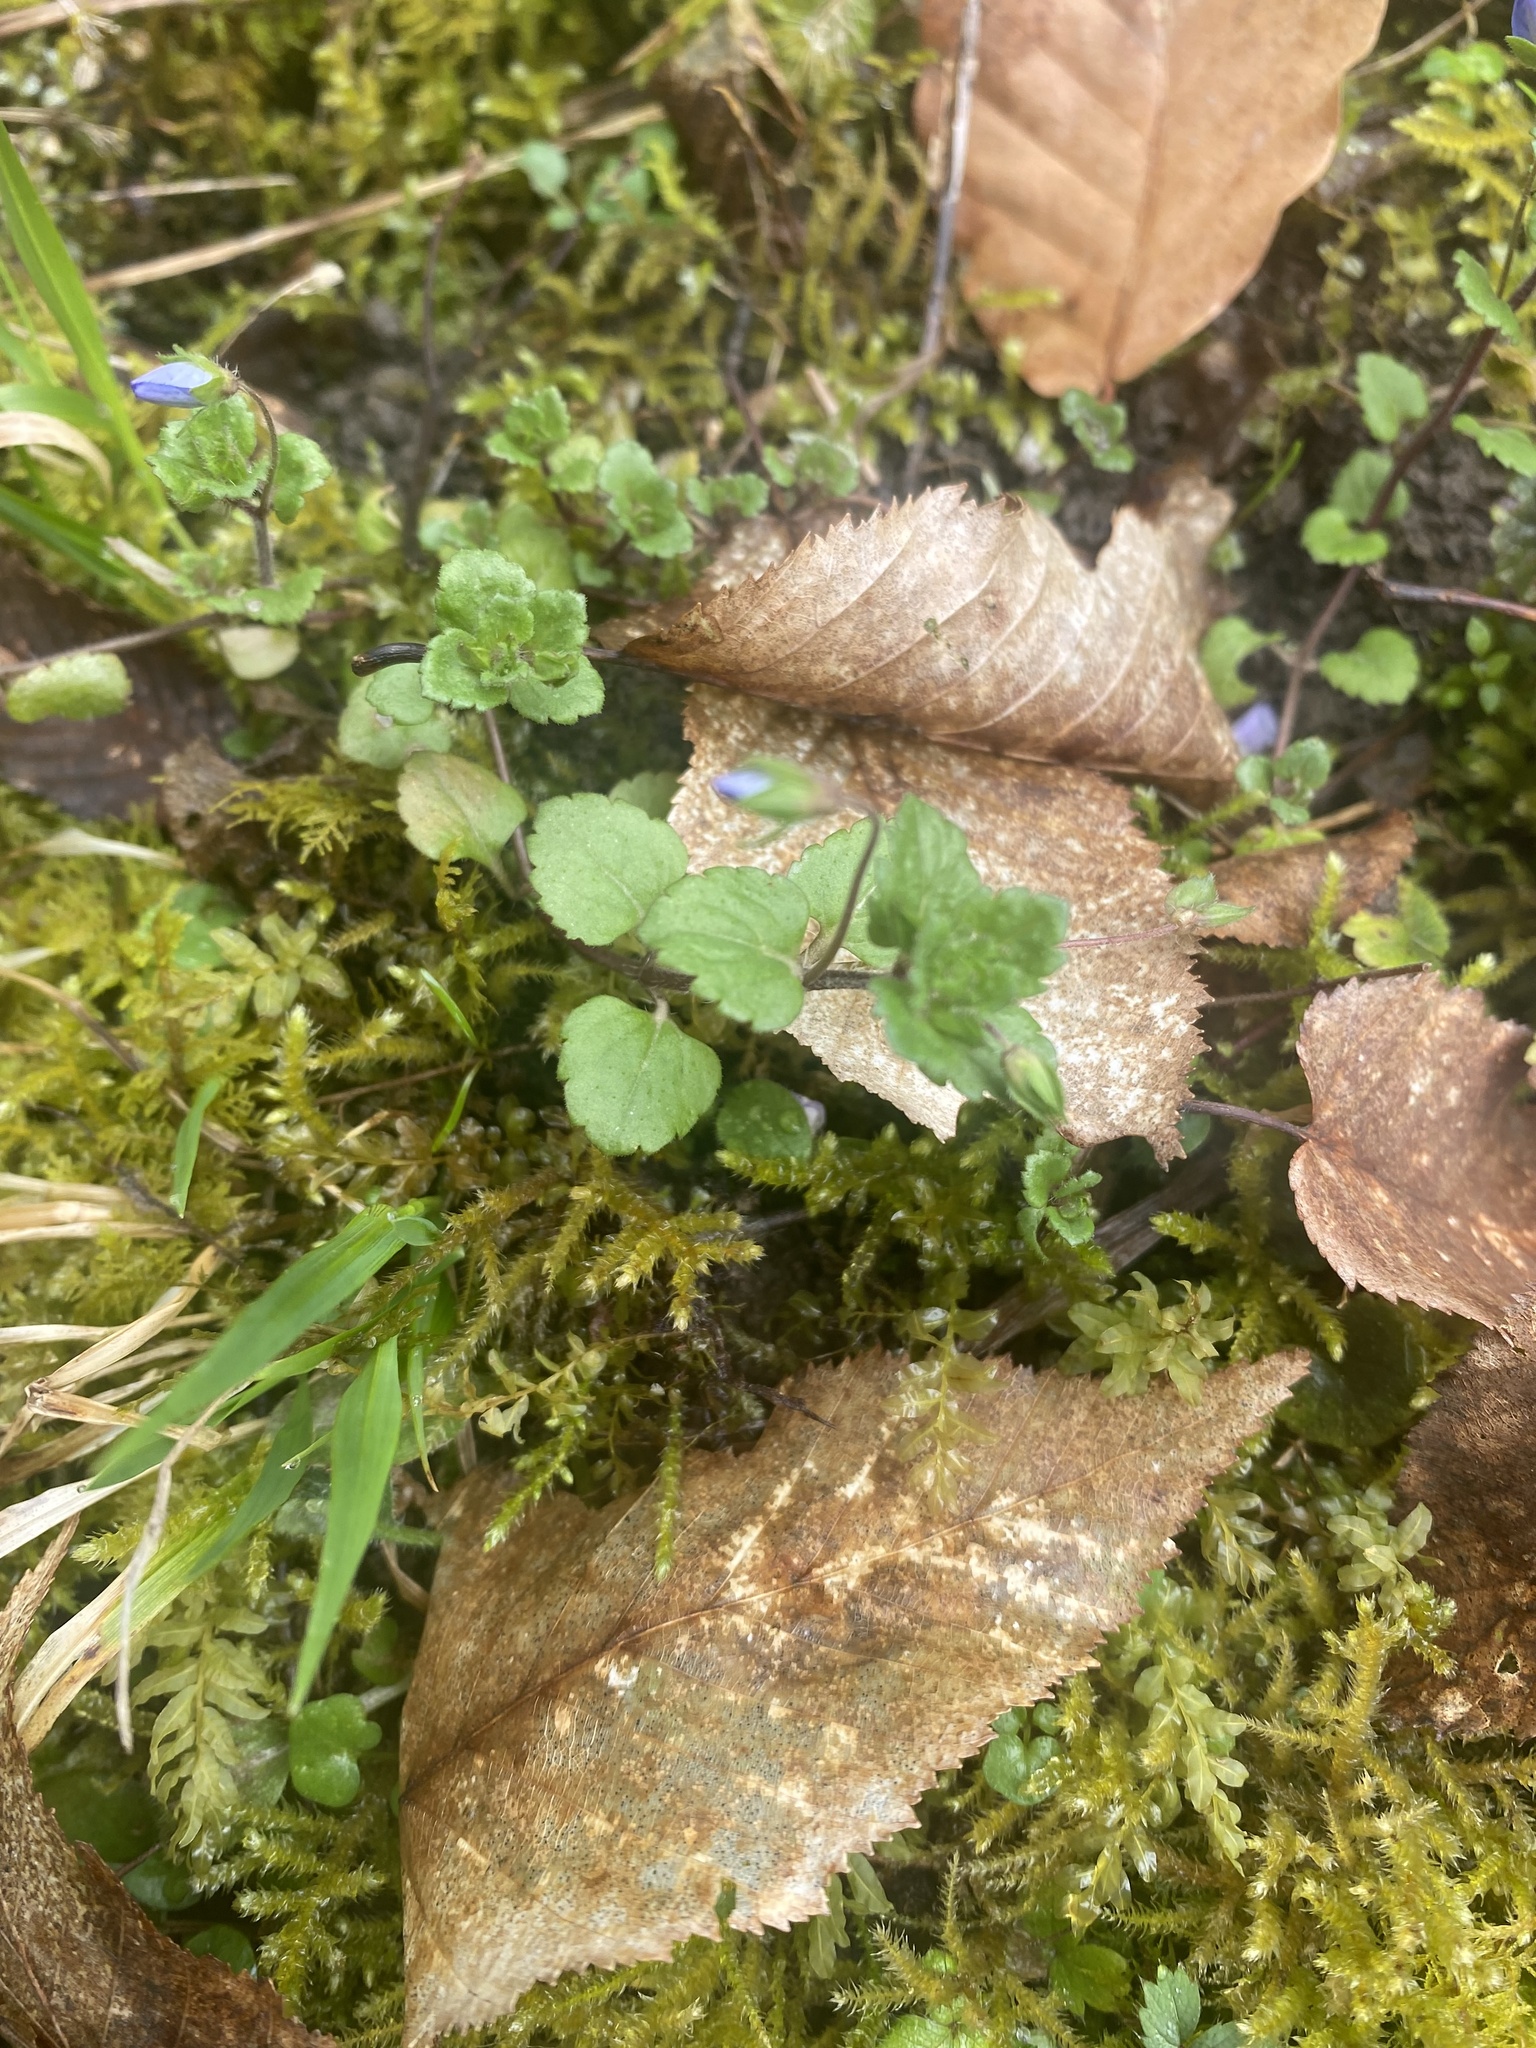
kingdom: Plantae
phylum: Tracheophyta
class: Magnoliopsida
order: Lamiales
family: Plantaginaceae
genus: Veronica
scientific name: Veronica persica
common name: Common field-speedwell
